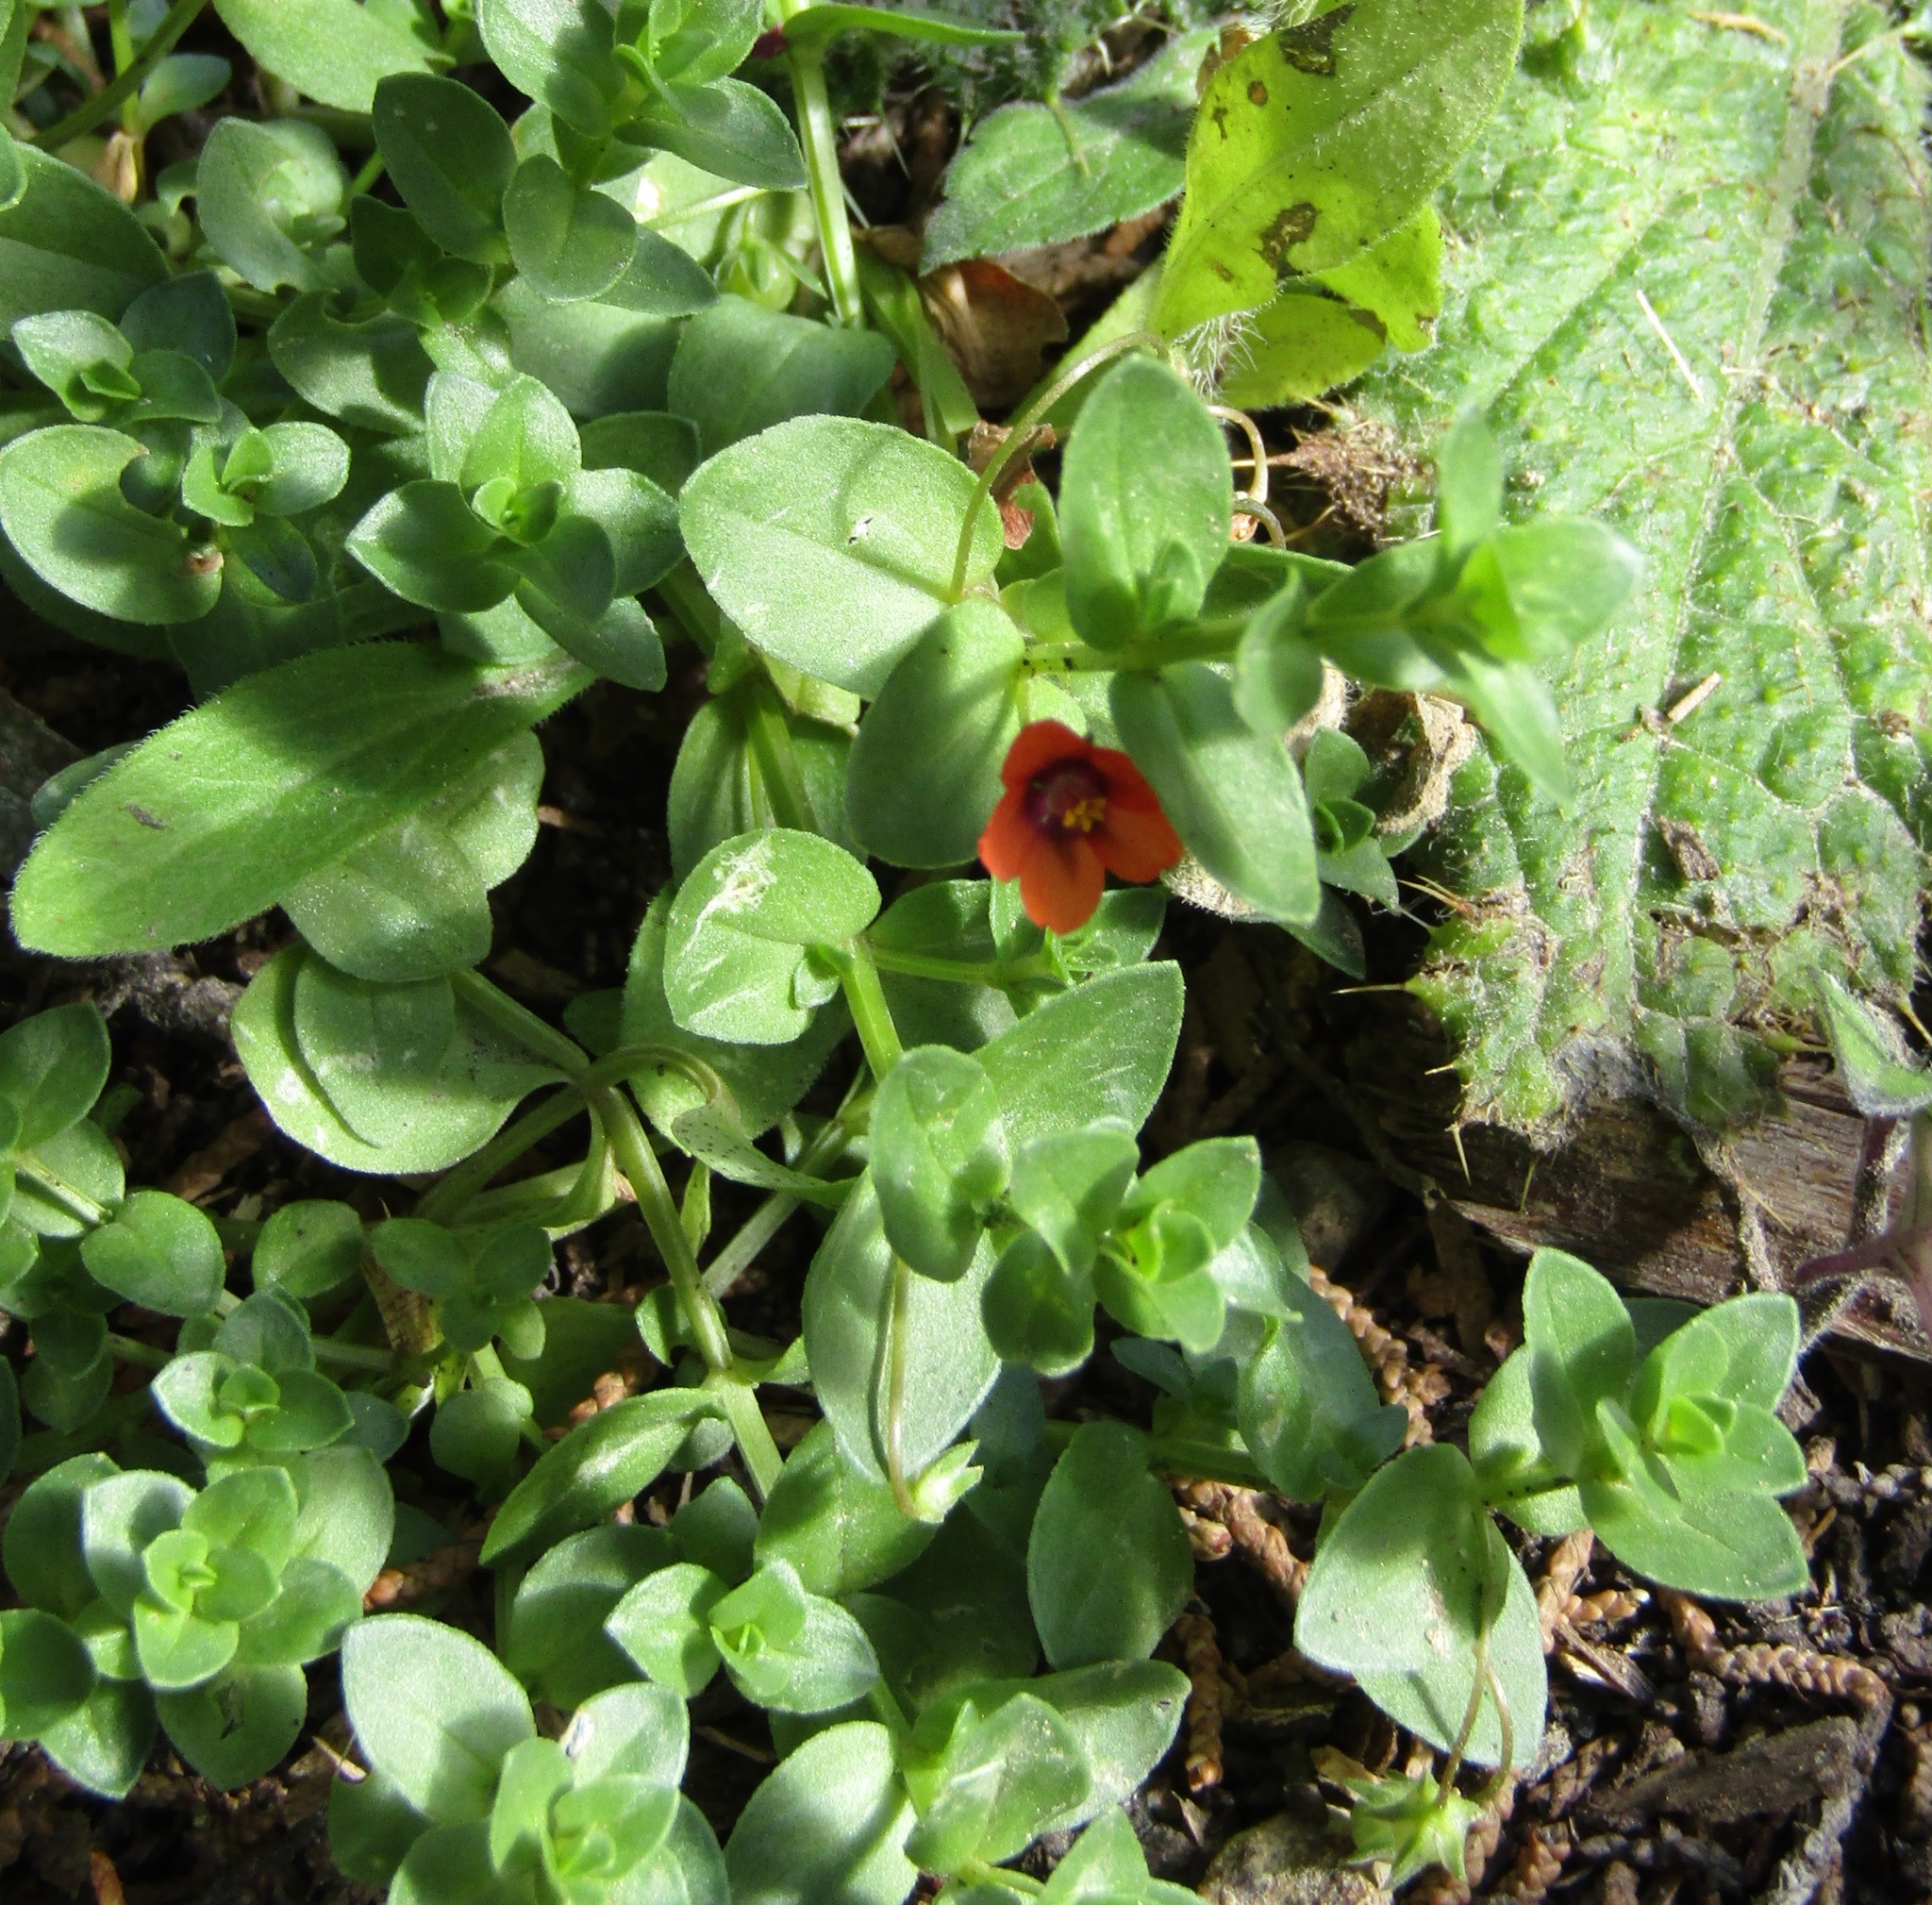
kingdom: Plantae
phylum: Tracheophyta
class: Magnoliopsida
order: Ericales
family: Primulaceae
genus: Lysimachia
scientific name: Lysimachia arvensis
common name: Scarlet pimpernel
